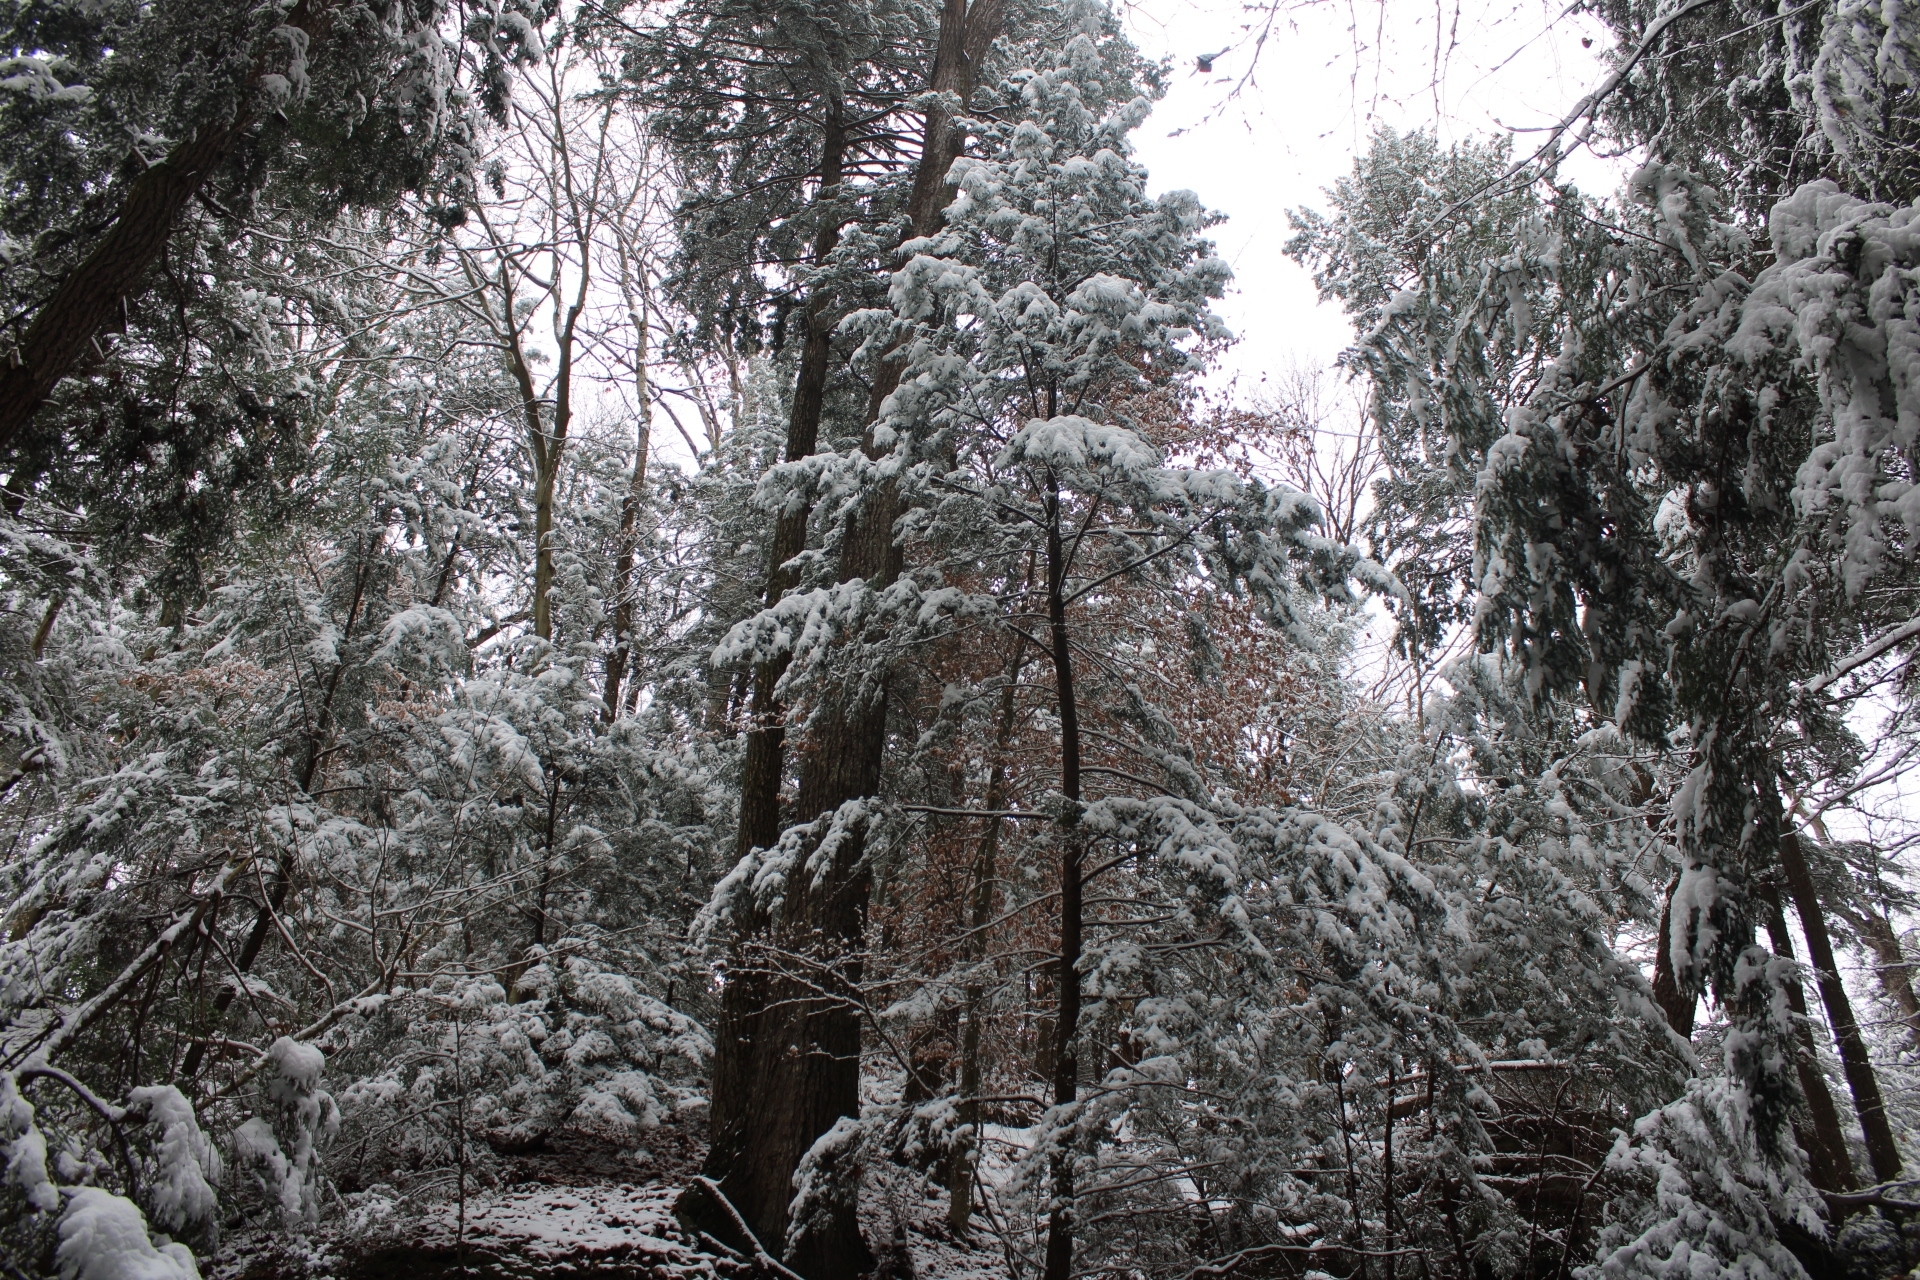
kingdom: Plantae
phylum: Tracheophyta
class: Pinopsida
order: Pinales
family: Pinaceae
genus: Tsuga
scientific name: Tsuga canadensis
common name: Eastern hemlock
